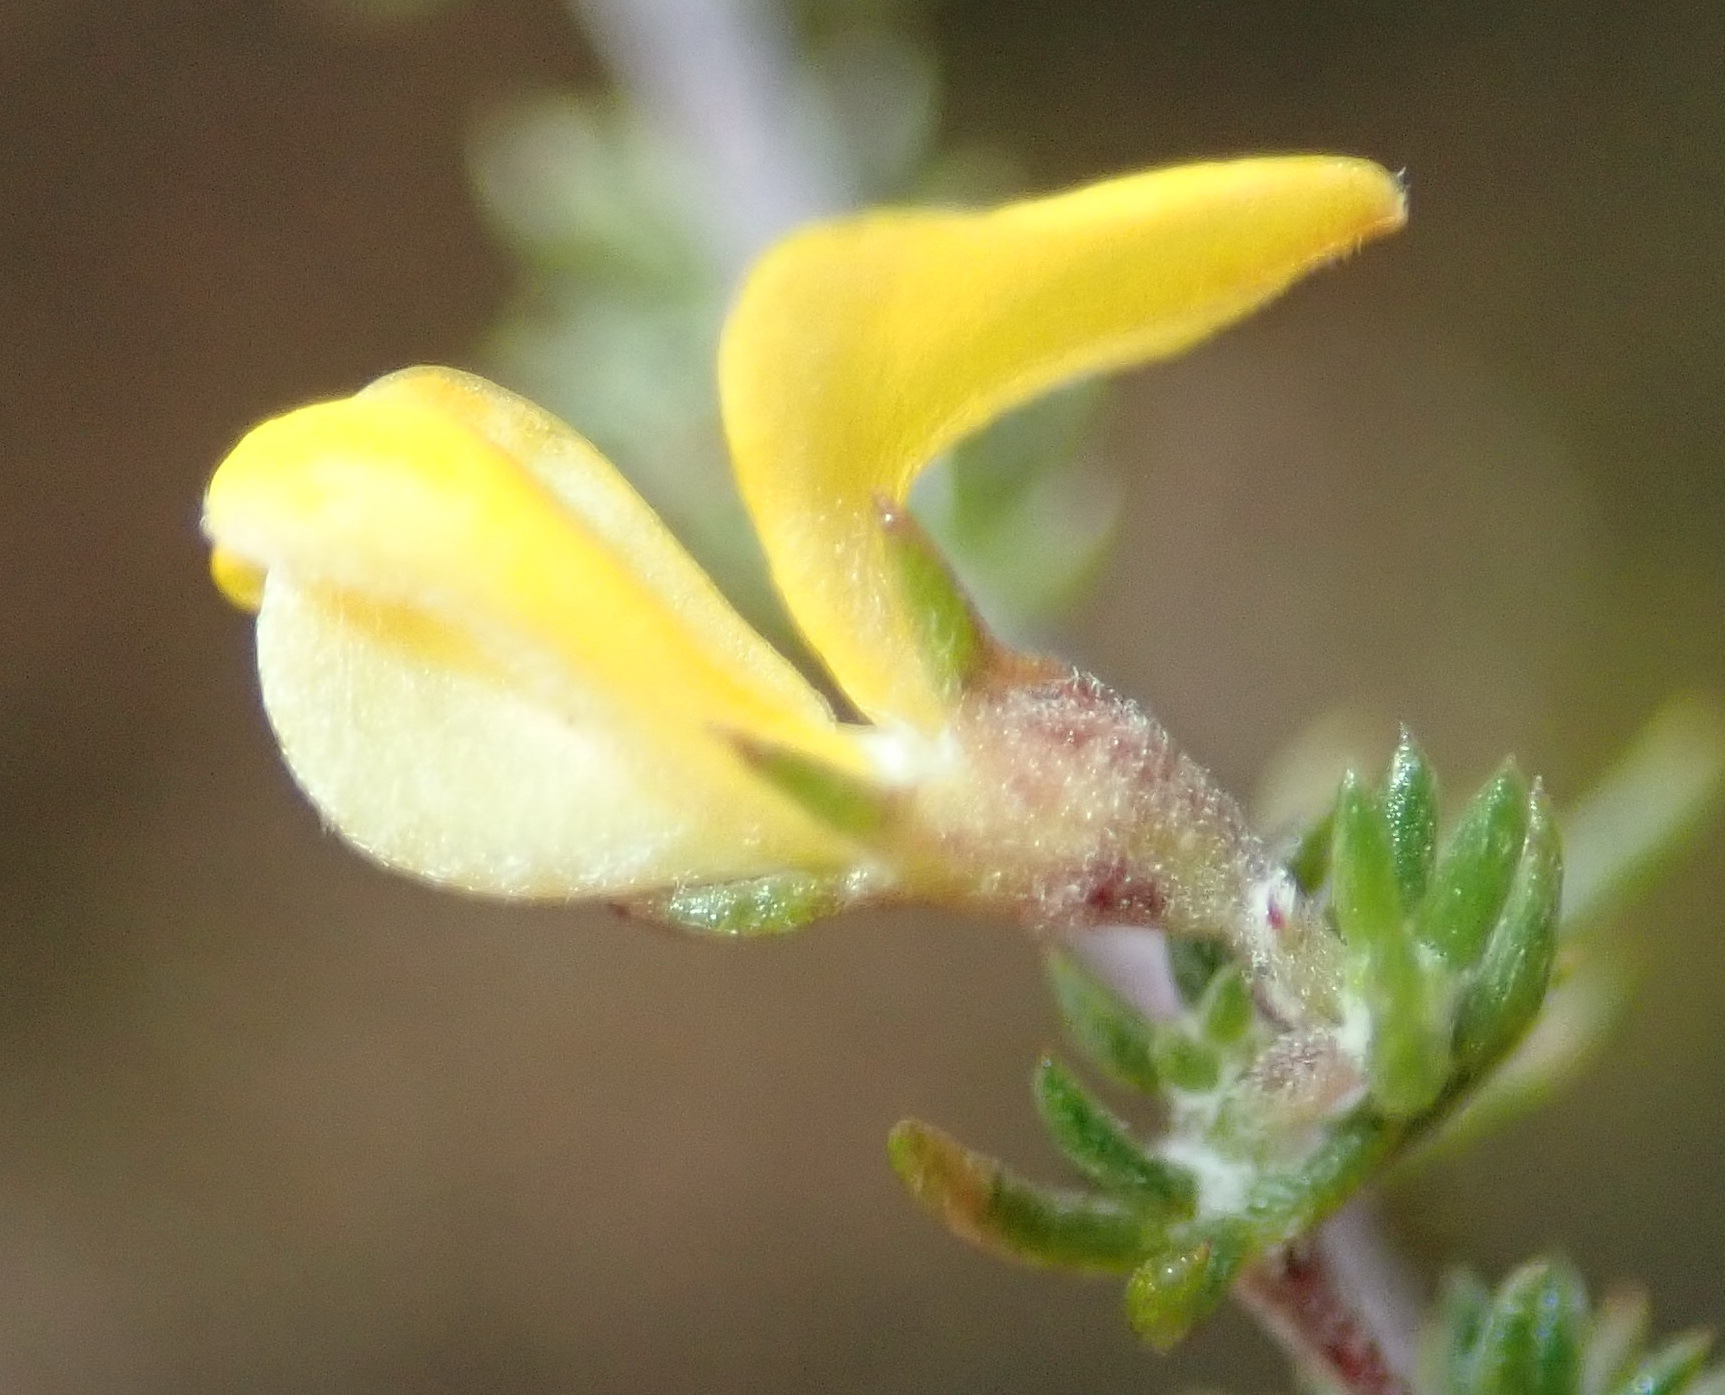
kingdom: Plantae
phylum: Tracheophyta
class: Magnoliopsida
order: Fabales
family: Fabaceae
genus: Aspalathus
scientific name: Aspalathus rubens
